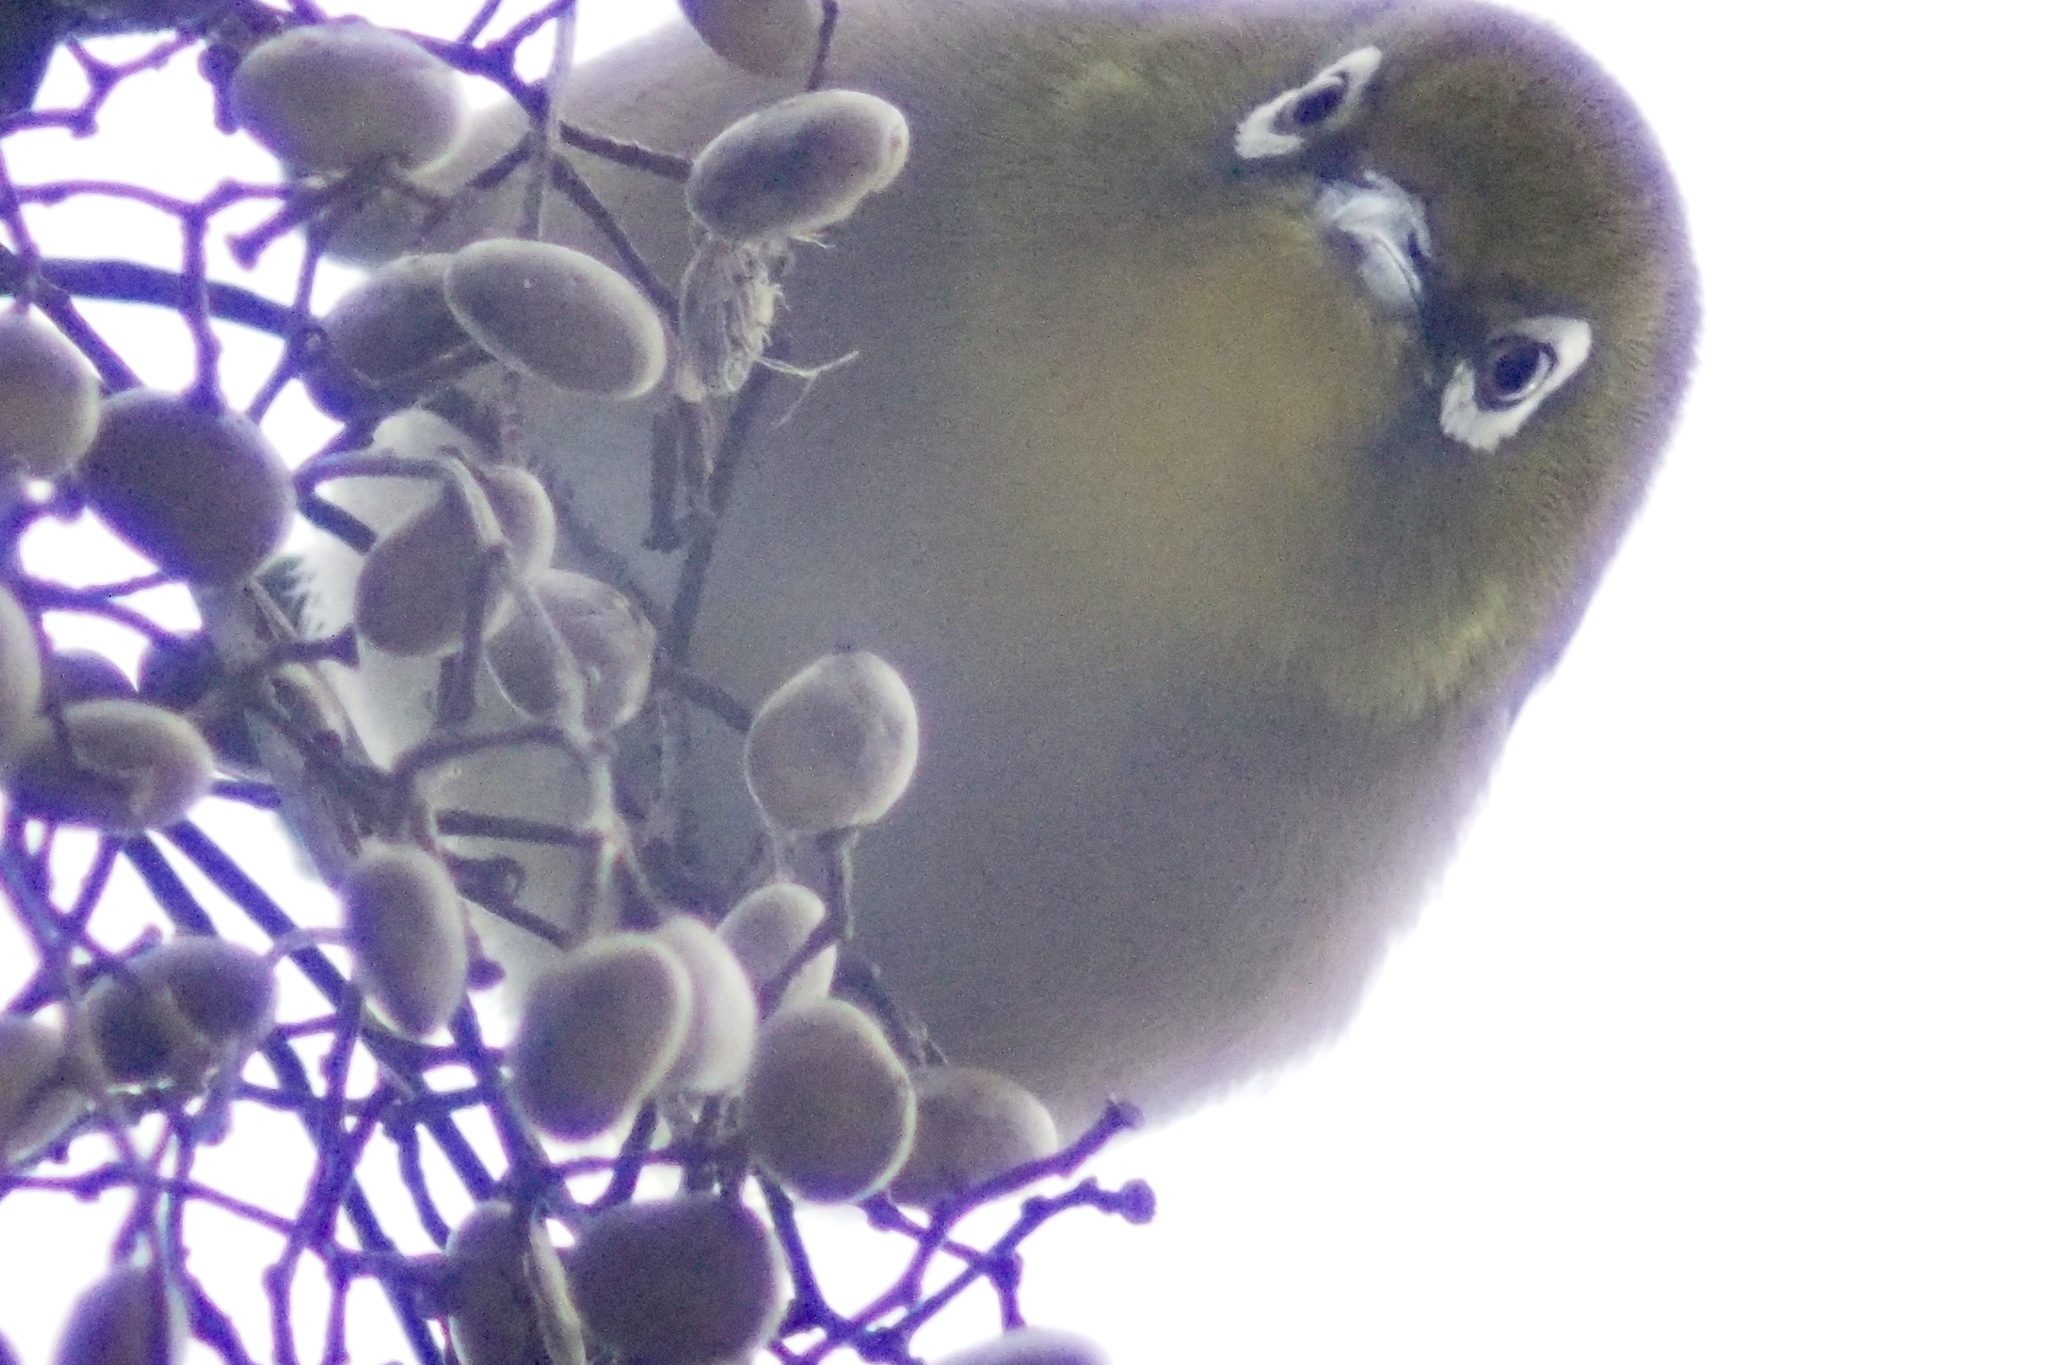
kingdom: Animalia
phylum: Chordata
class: Aves
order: Passeriformes
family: Zosteropidae
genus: Zosterops
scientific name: Zosterops japonicus
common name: Japanese white-eye
